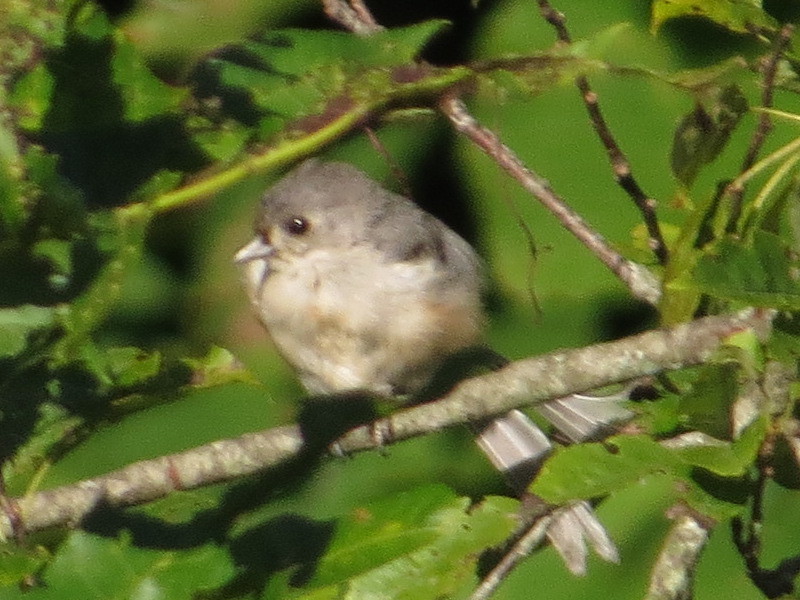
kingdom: Animalia
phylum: Chordata
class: Aves
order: Passeriformes
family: Paridae
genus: Baeolophus
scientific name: Baeolophus bicolor
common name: Tufted titmouse
